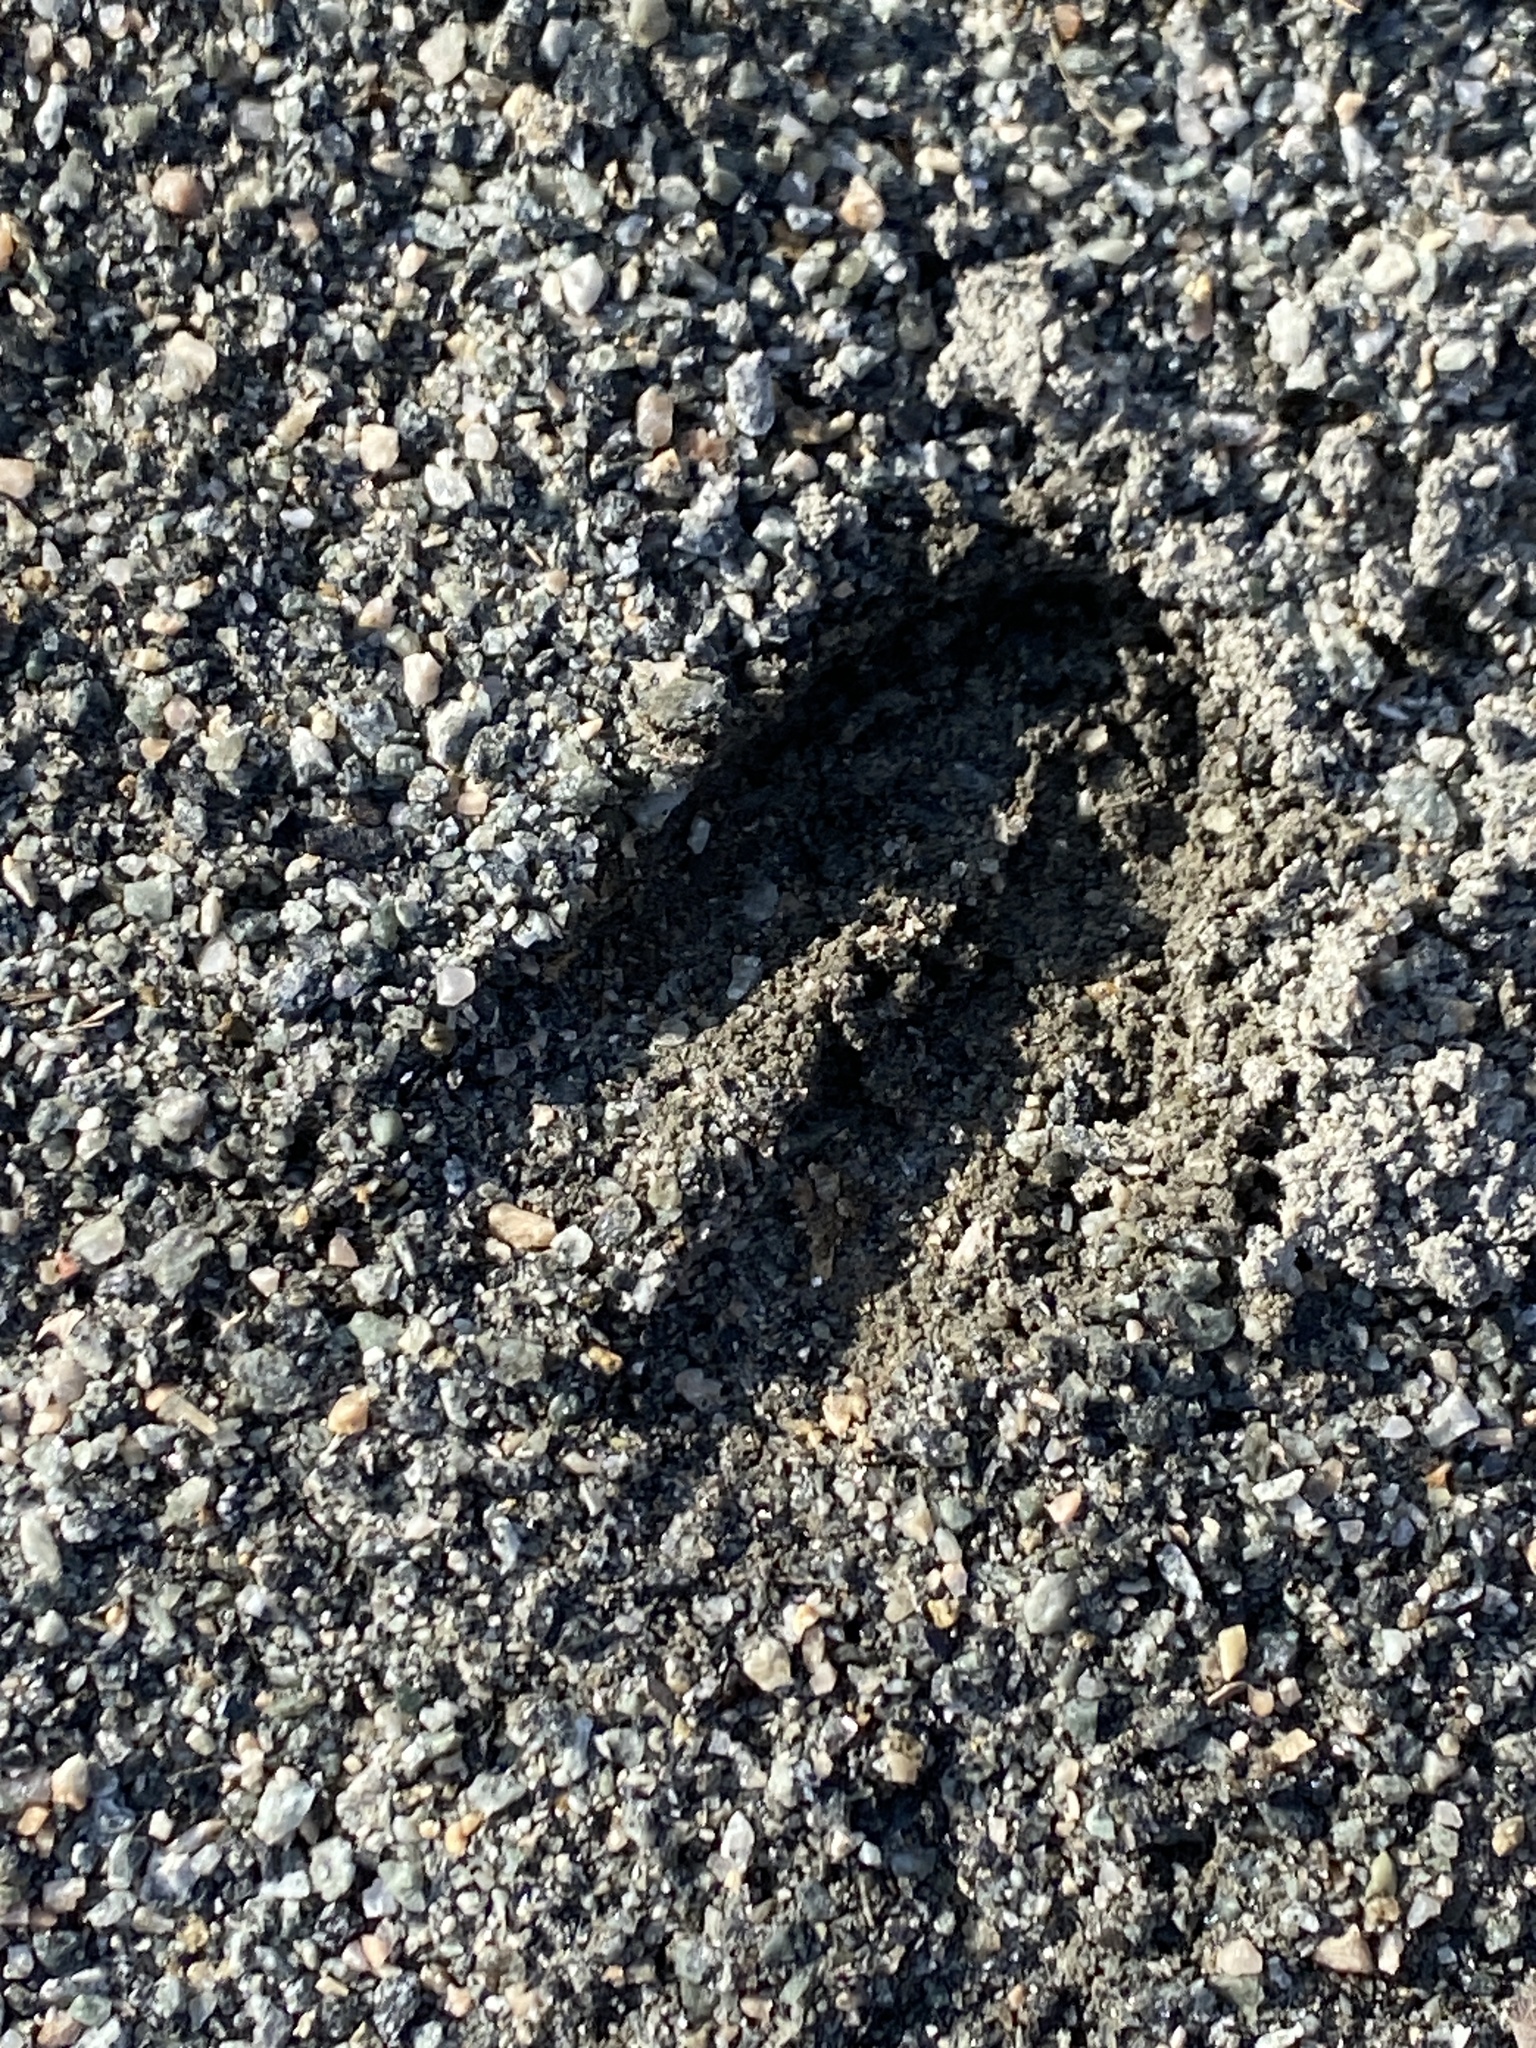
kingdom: Animalia
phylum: Chordata
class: Mammalia
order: Artiodactyla
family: Cervidae
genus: Odocoileus
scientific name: Odocoileus virginianus
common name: White-tailed deer
